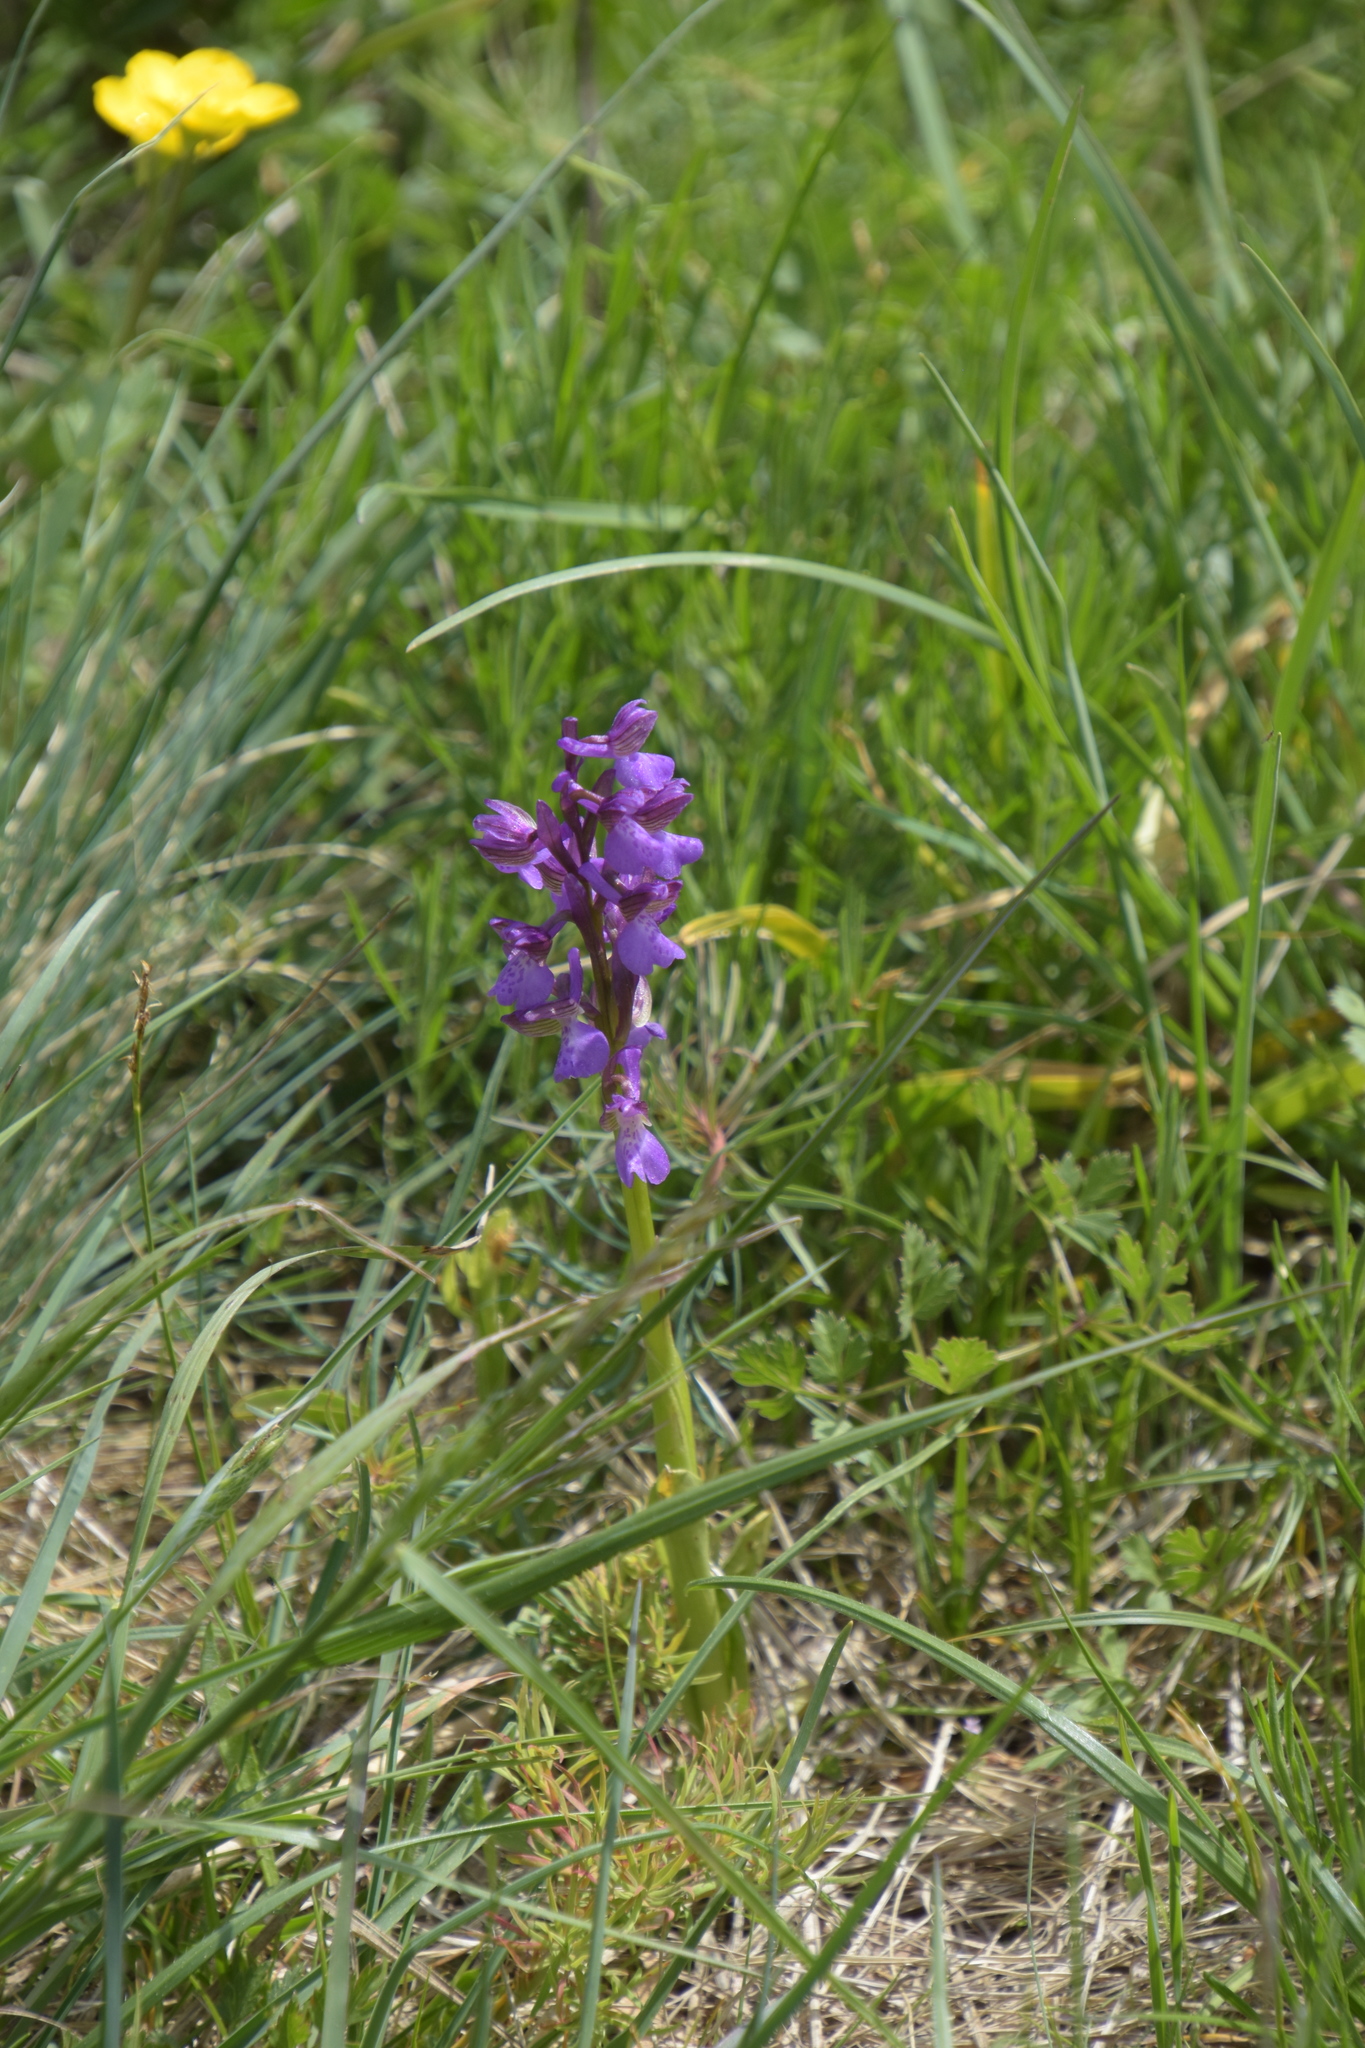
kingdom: Plantae
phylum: Tracheophyta
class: Liliopsida
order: Asparagales
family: Orchidaceae
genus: Anacamptis
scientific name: Anacamptis morio
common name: Green-winged orchid
